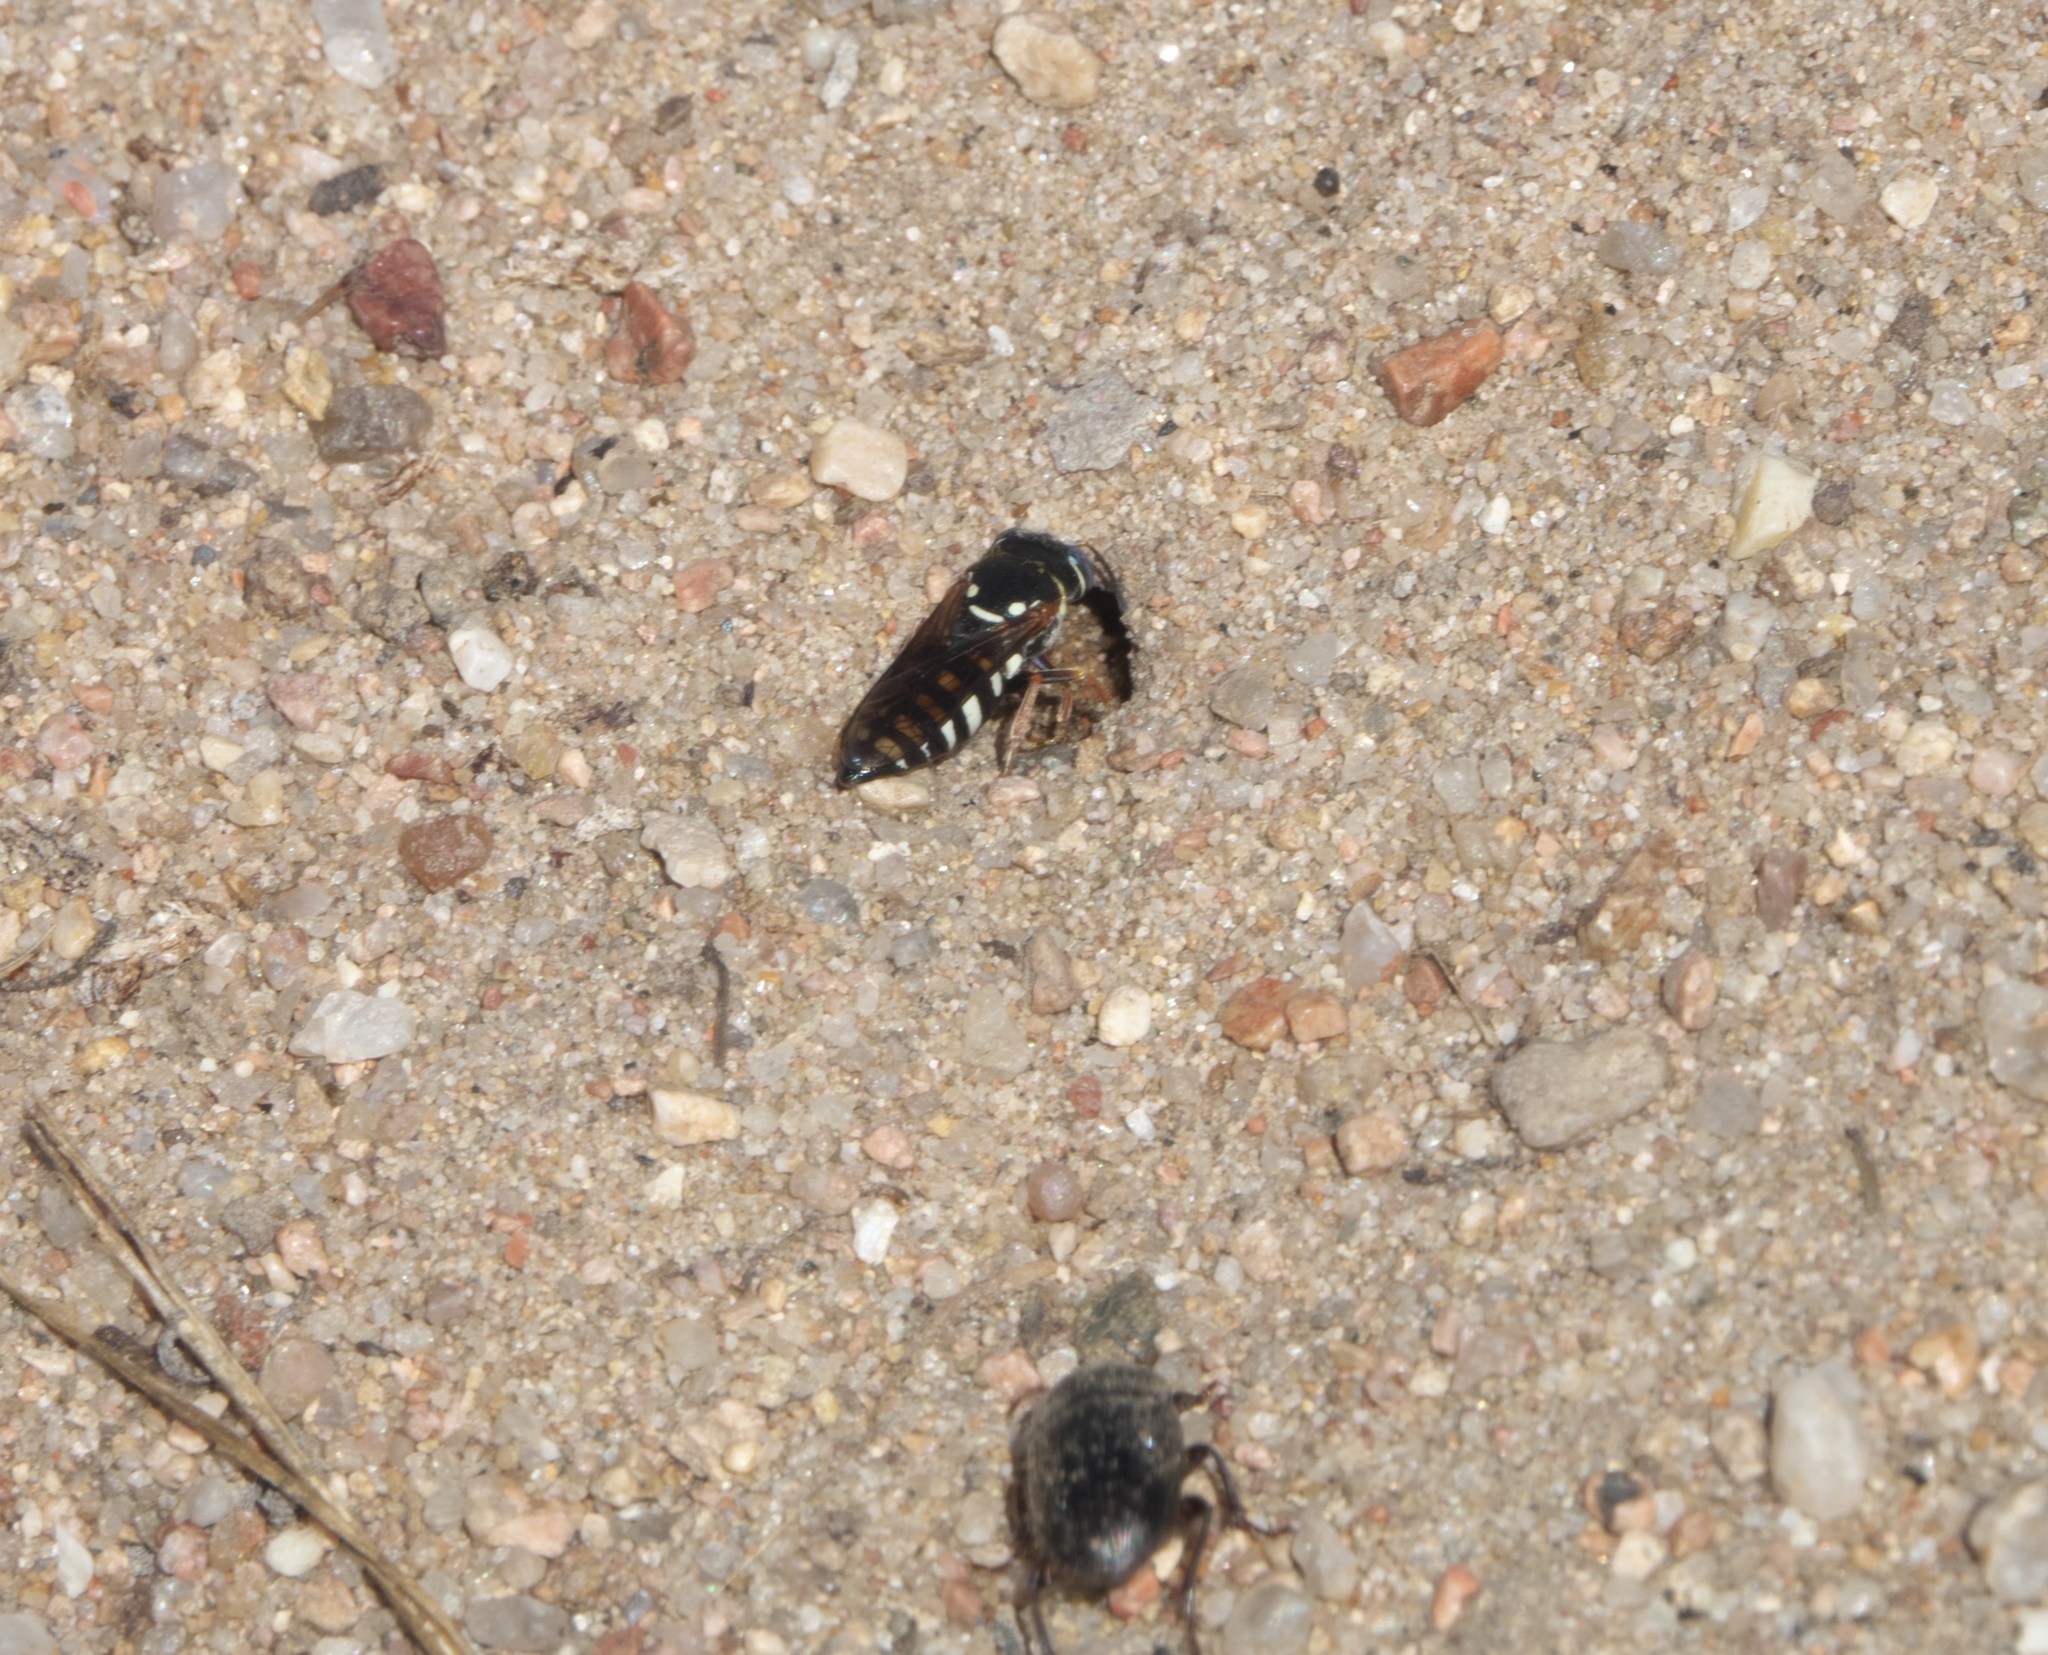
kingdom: Animalia
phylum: Arthropoda
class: Insecta
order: Hymenoptera
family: Crabronidae
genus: Bicyrtes
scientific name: Bicyrtes ventralis
